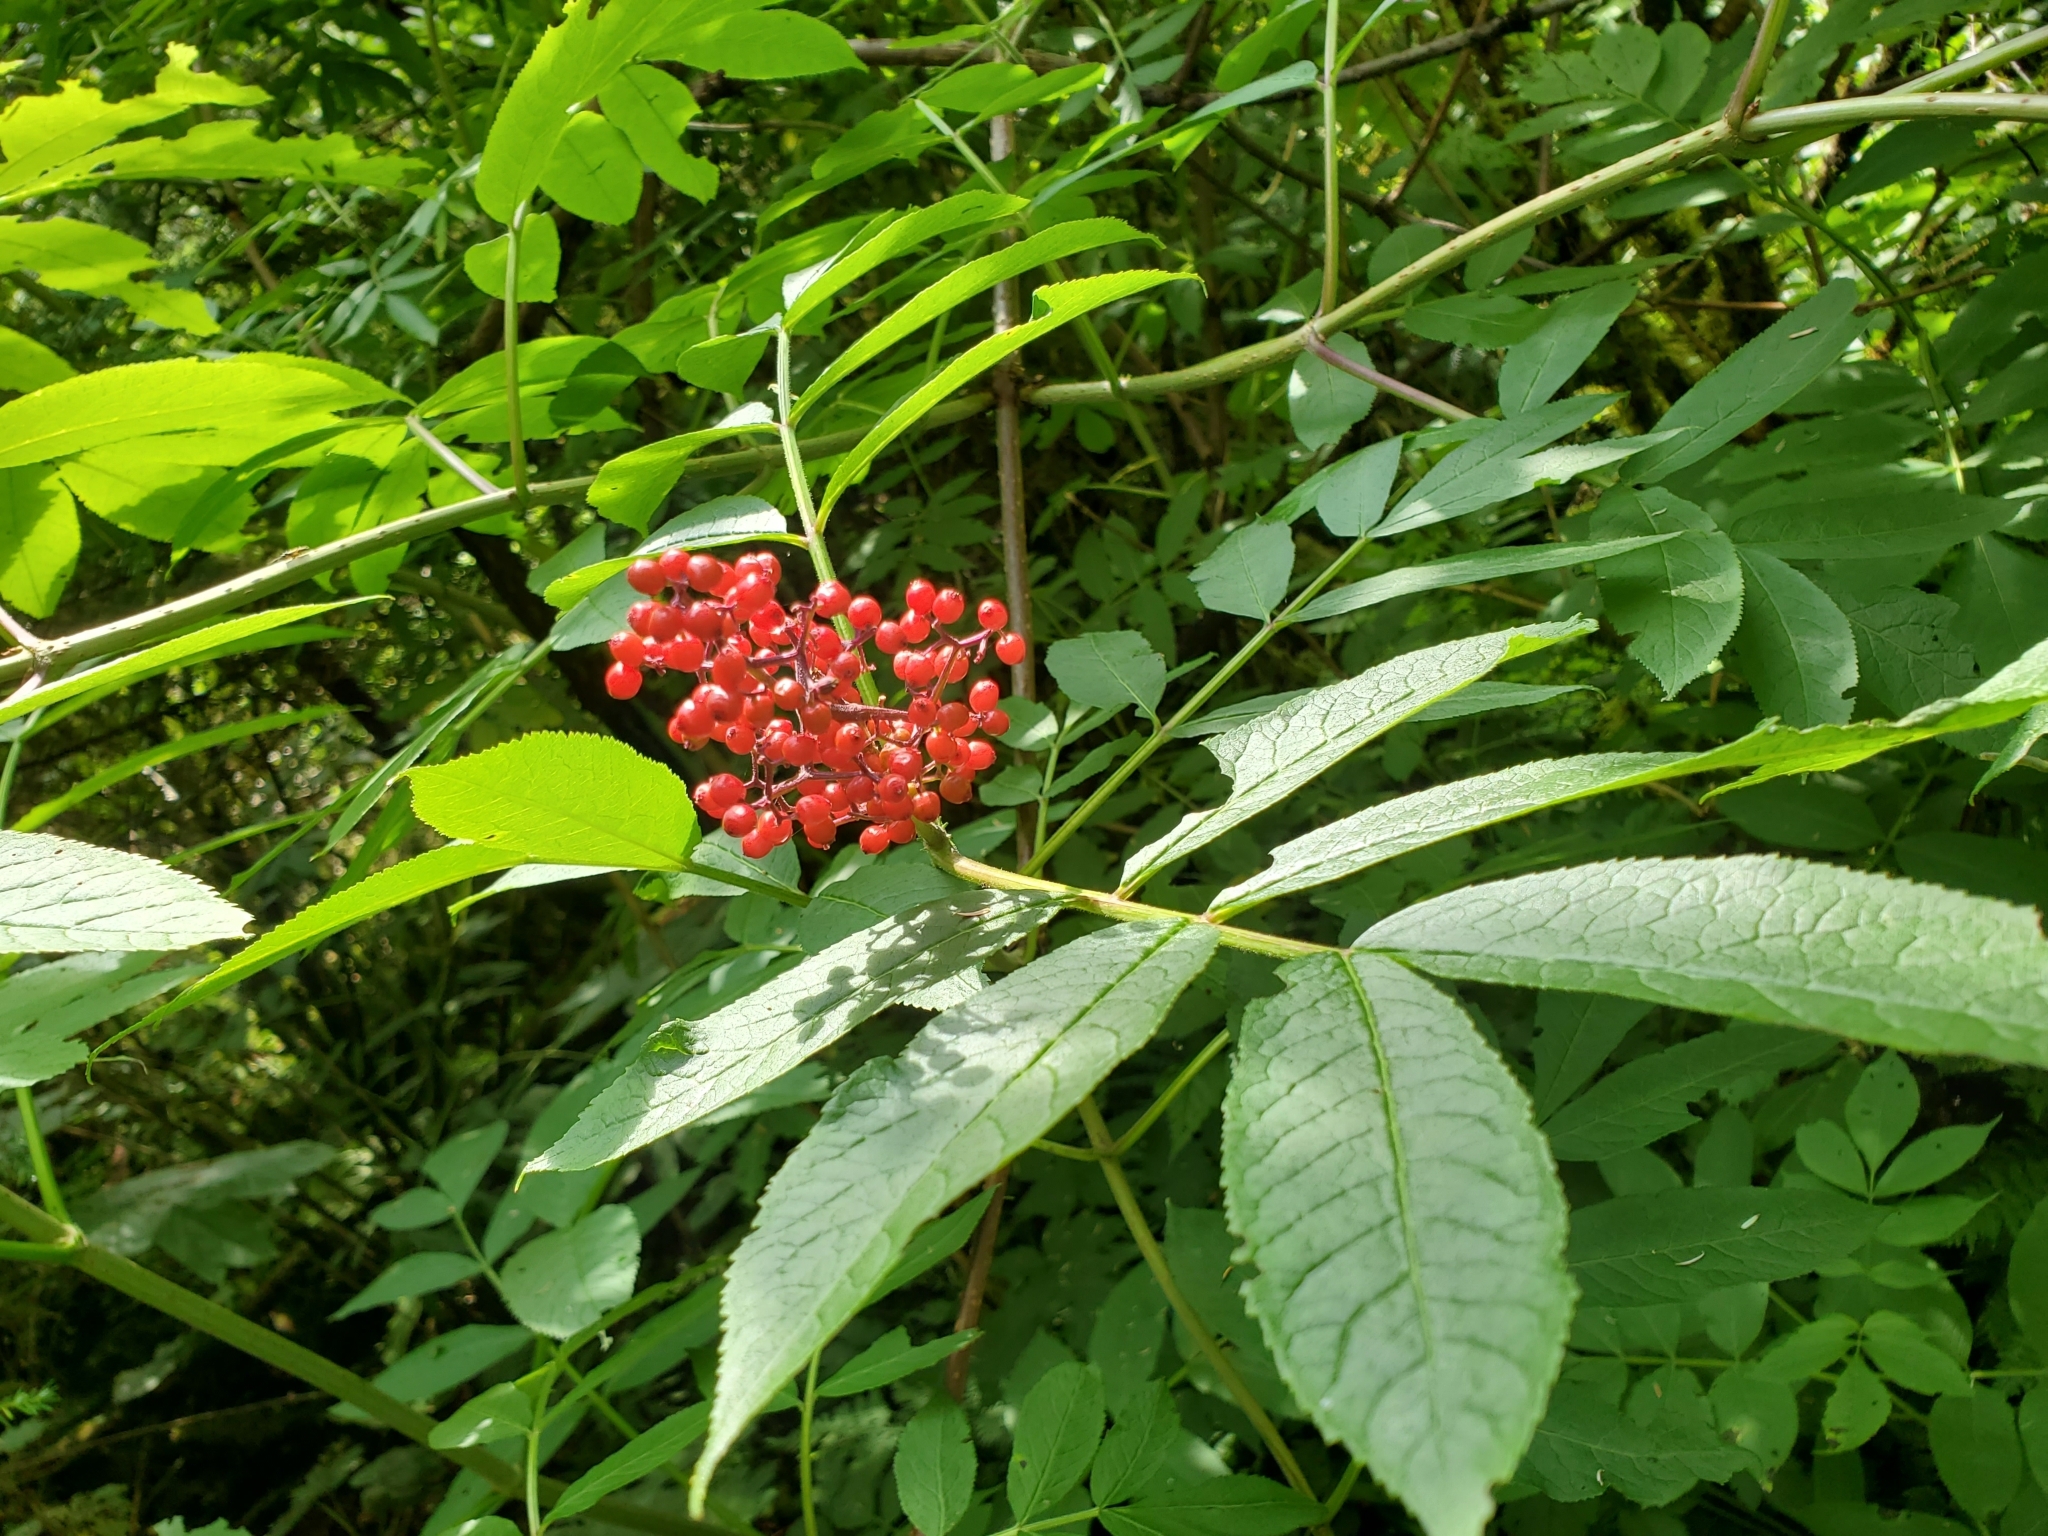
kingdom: Plantae
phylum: Tracheophyta
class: Magnoliopsida
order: Dipsacales
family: Viburnaceae
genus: Sambucus
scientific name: Sambucus racemosa
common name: Red-berried elder
